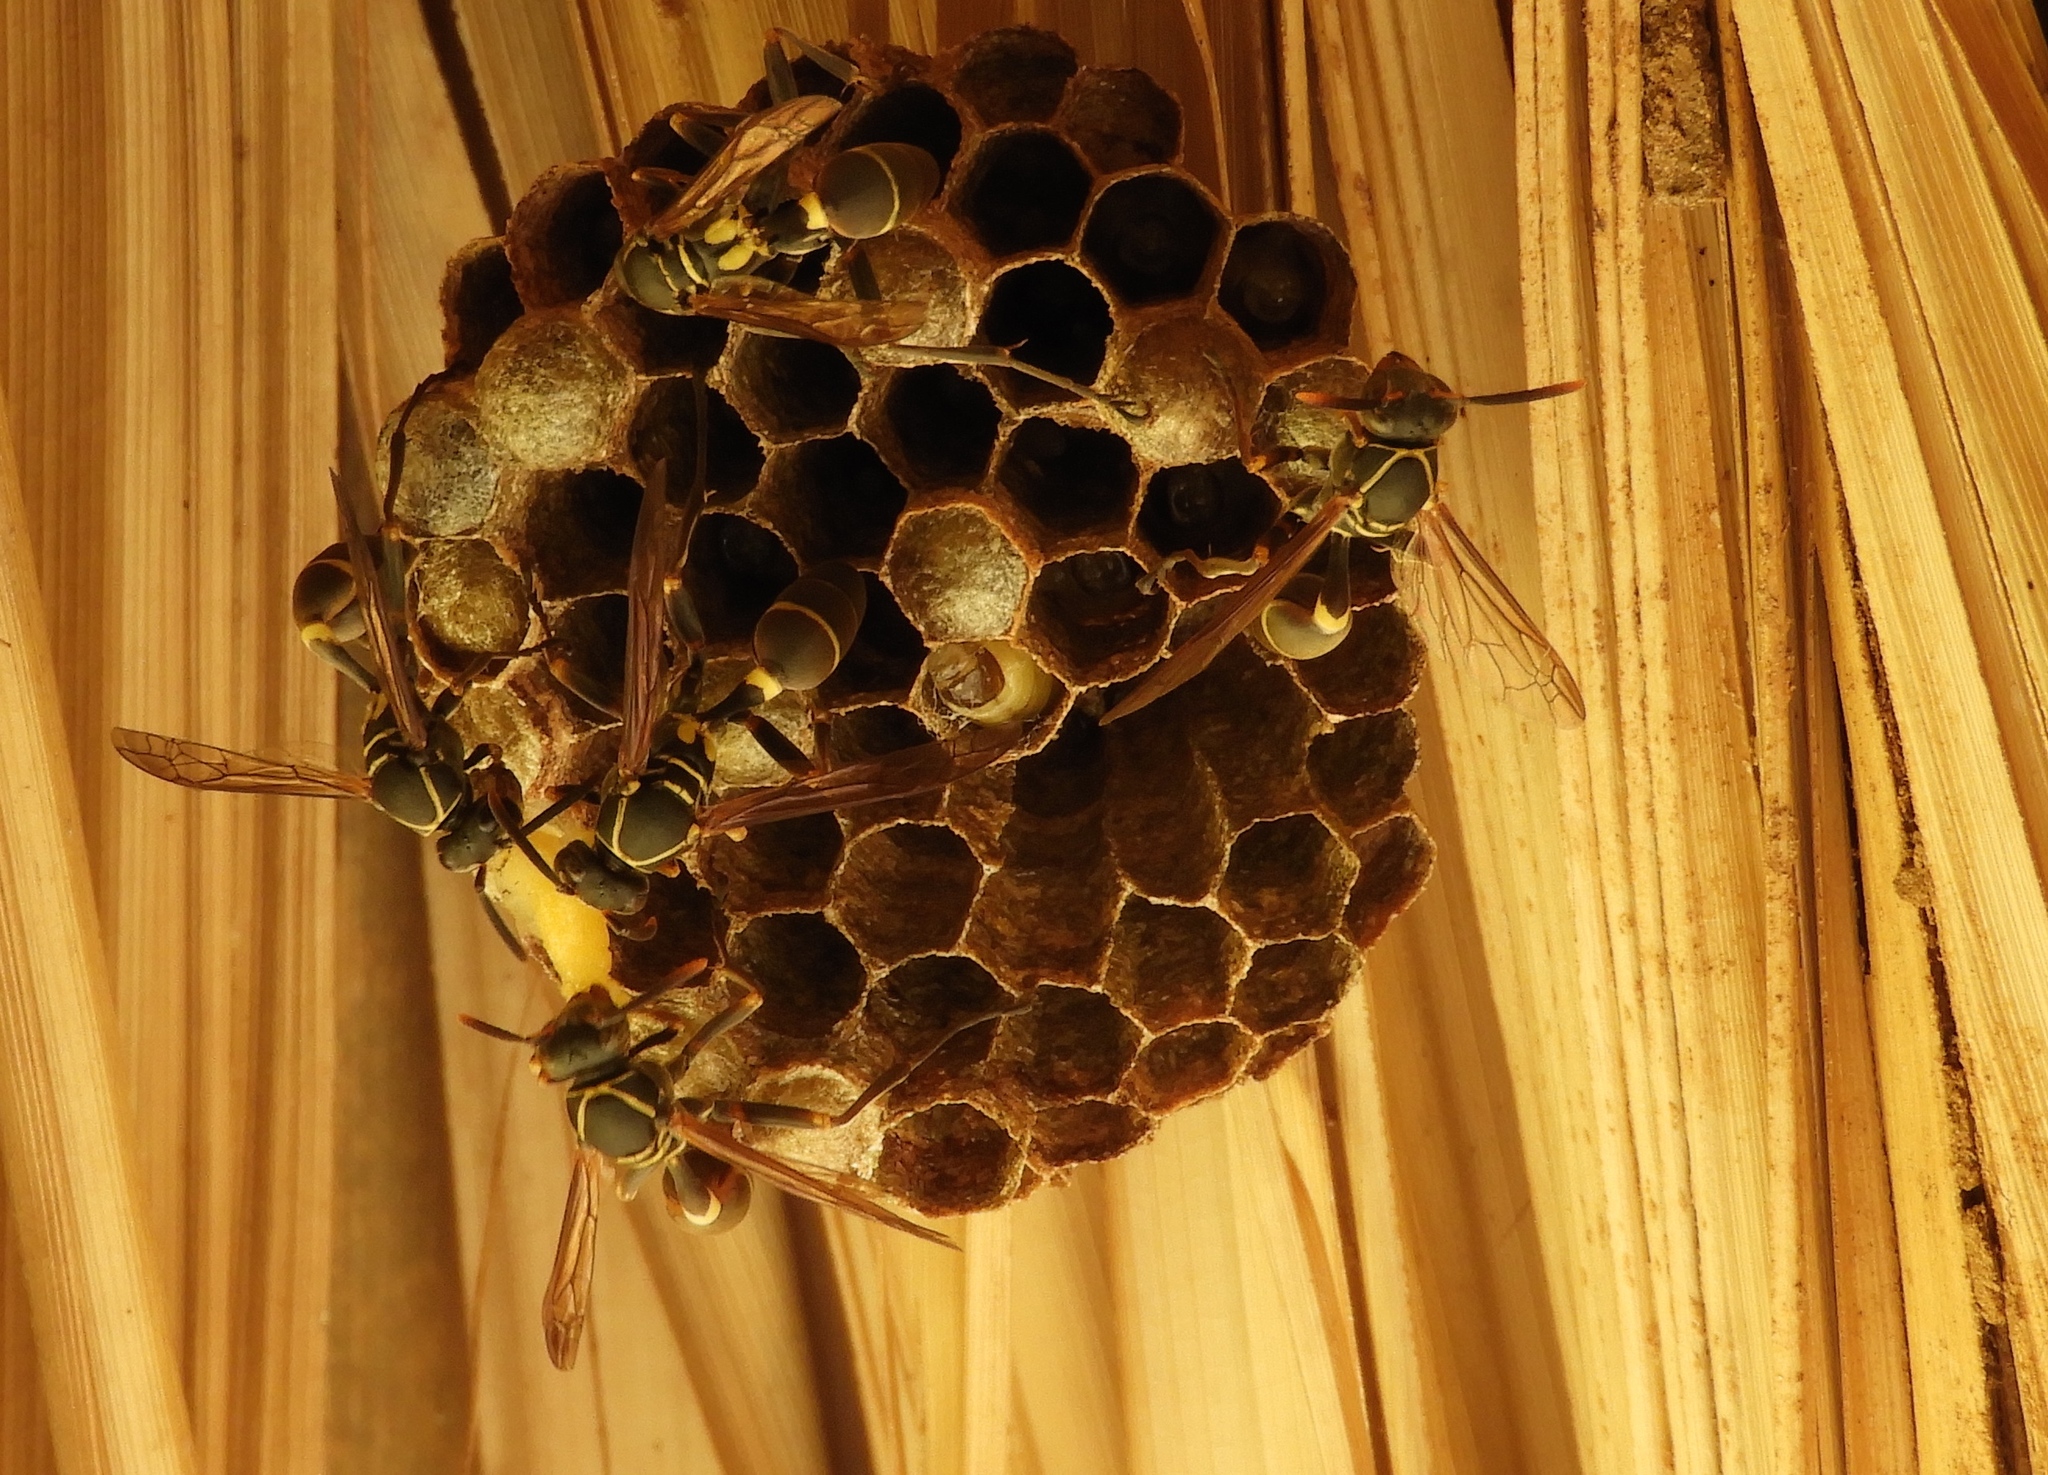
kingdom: Animalia
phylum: Arthropoda
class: Insecta
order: Hymenoptera
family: Vespidae
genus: Mischocyttarus
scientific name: Mischocyttarus
